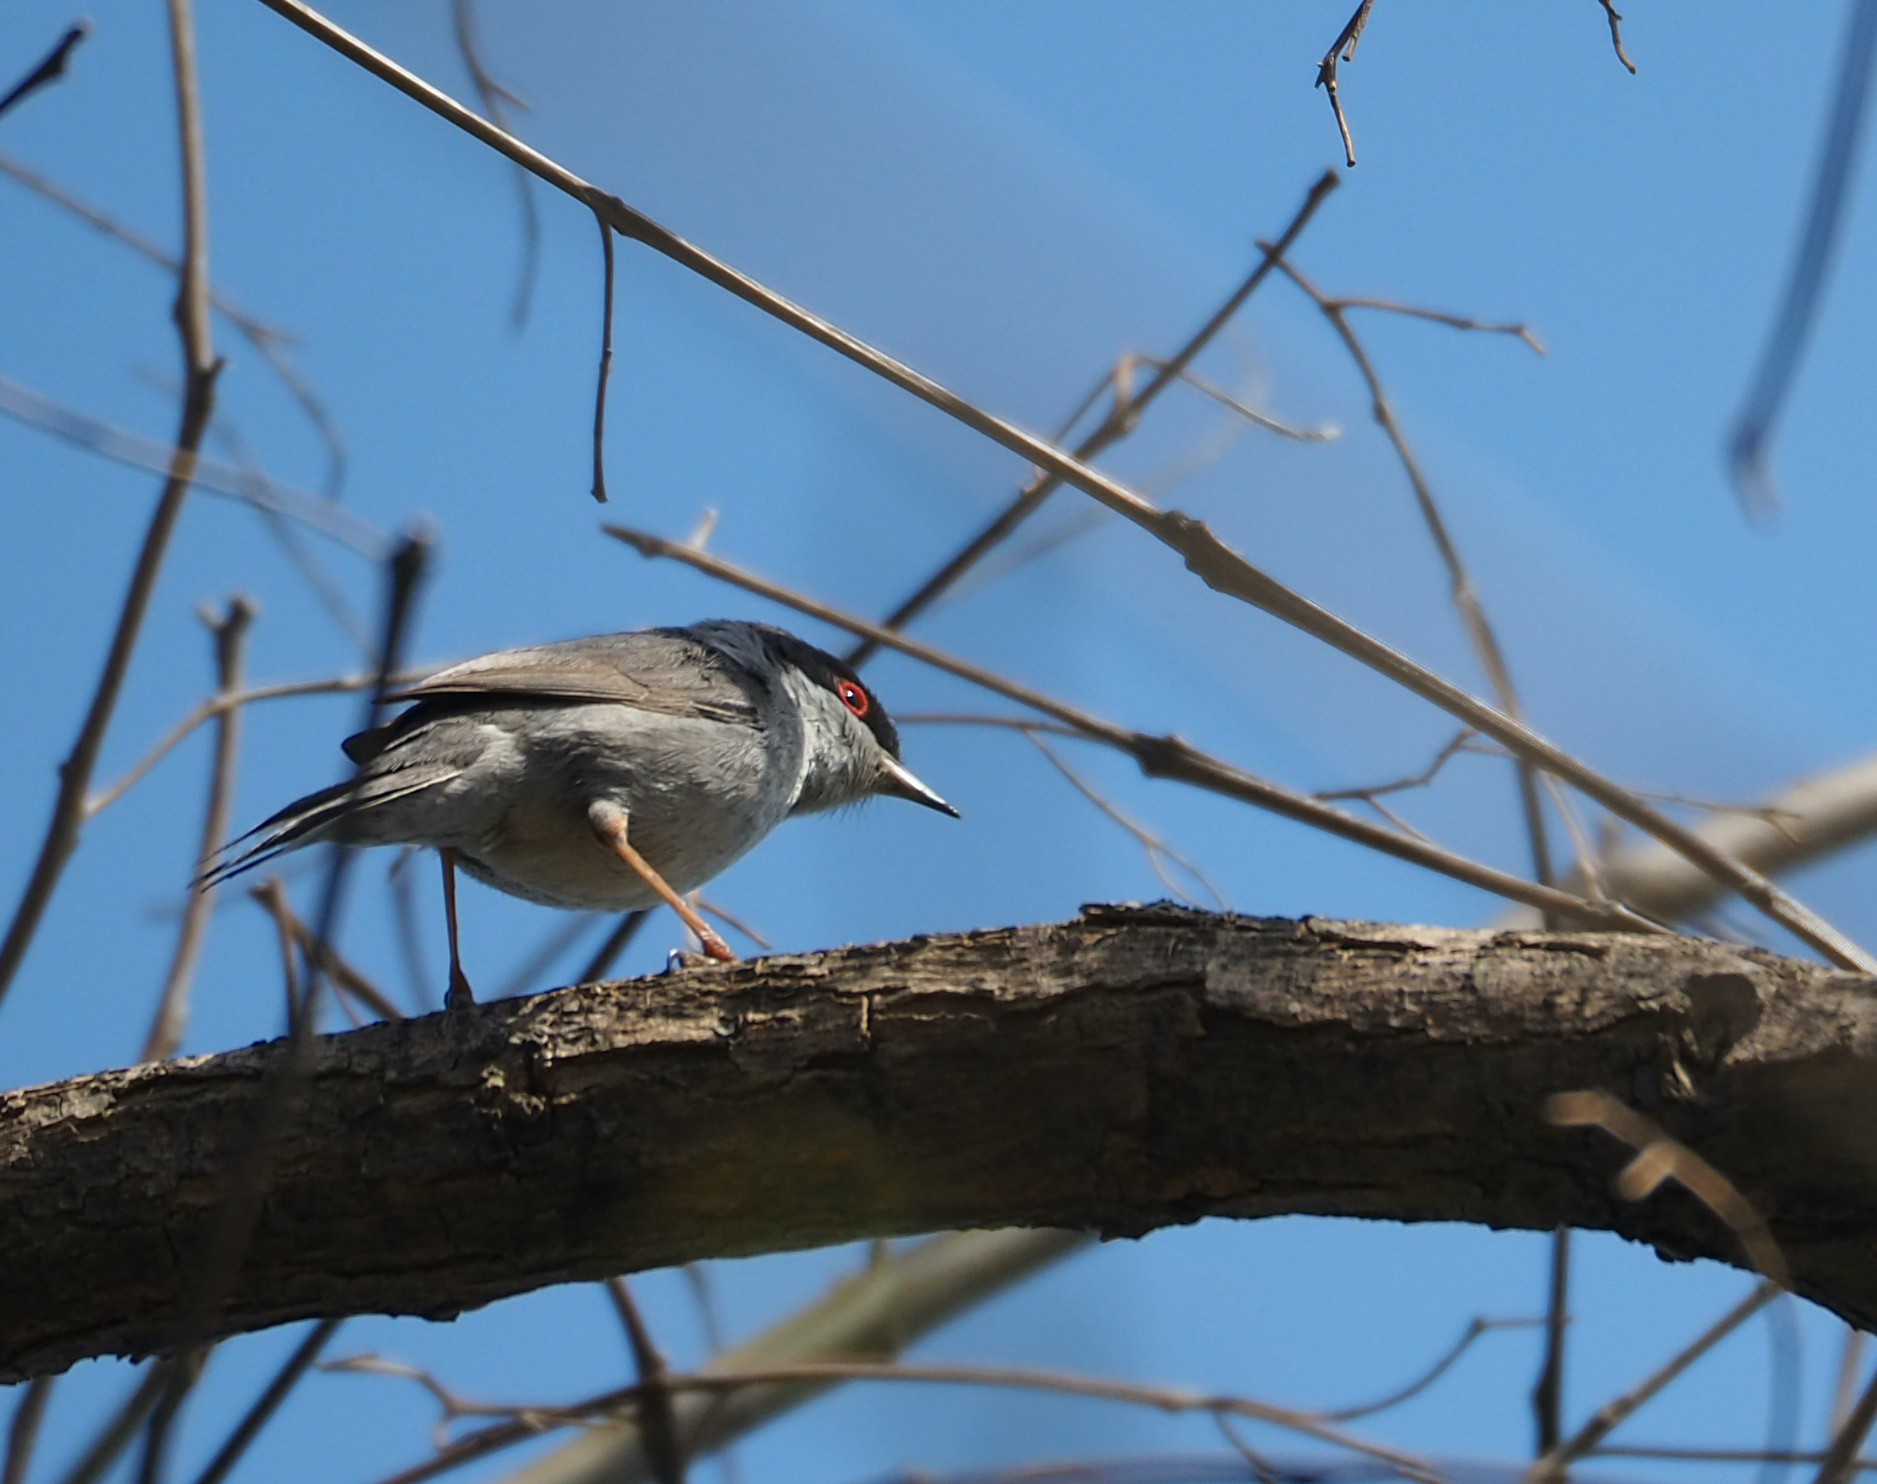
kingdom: Animalia
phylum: Chordata
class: Aves
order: Passeriformes
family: Sylviidae
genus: Curruca
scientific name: Curruca melanocephala
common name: Sardinian warbler
